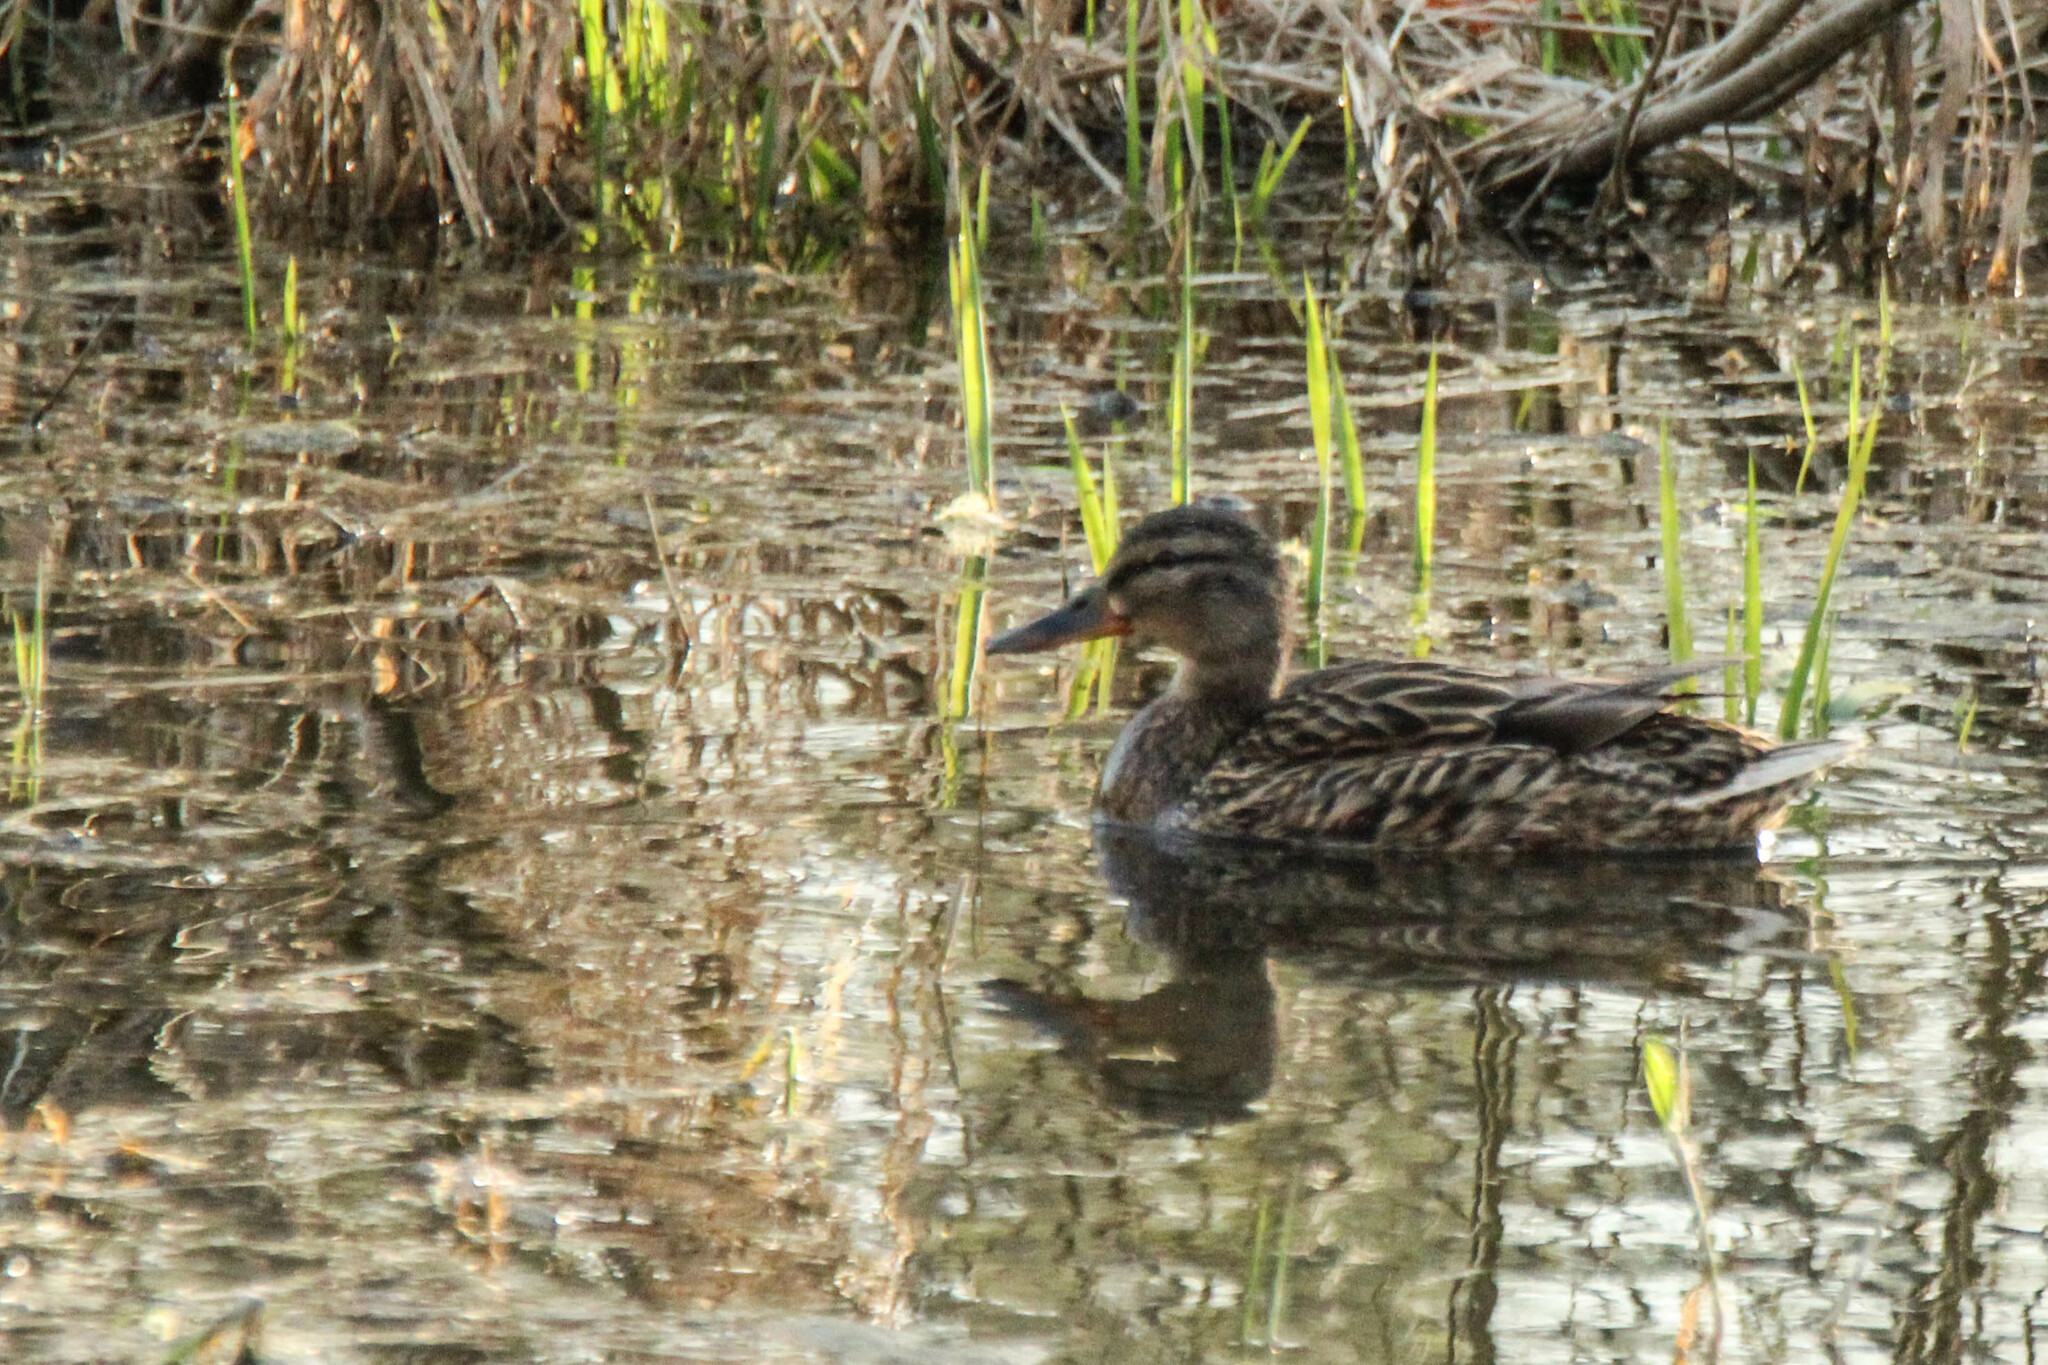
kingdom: Animalia
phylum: Chordata
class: Aves
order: Anseriformes
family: Anatidae
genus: Anas
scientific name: Anas platyrhynchos
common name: Mallard
